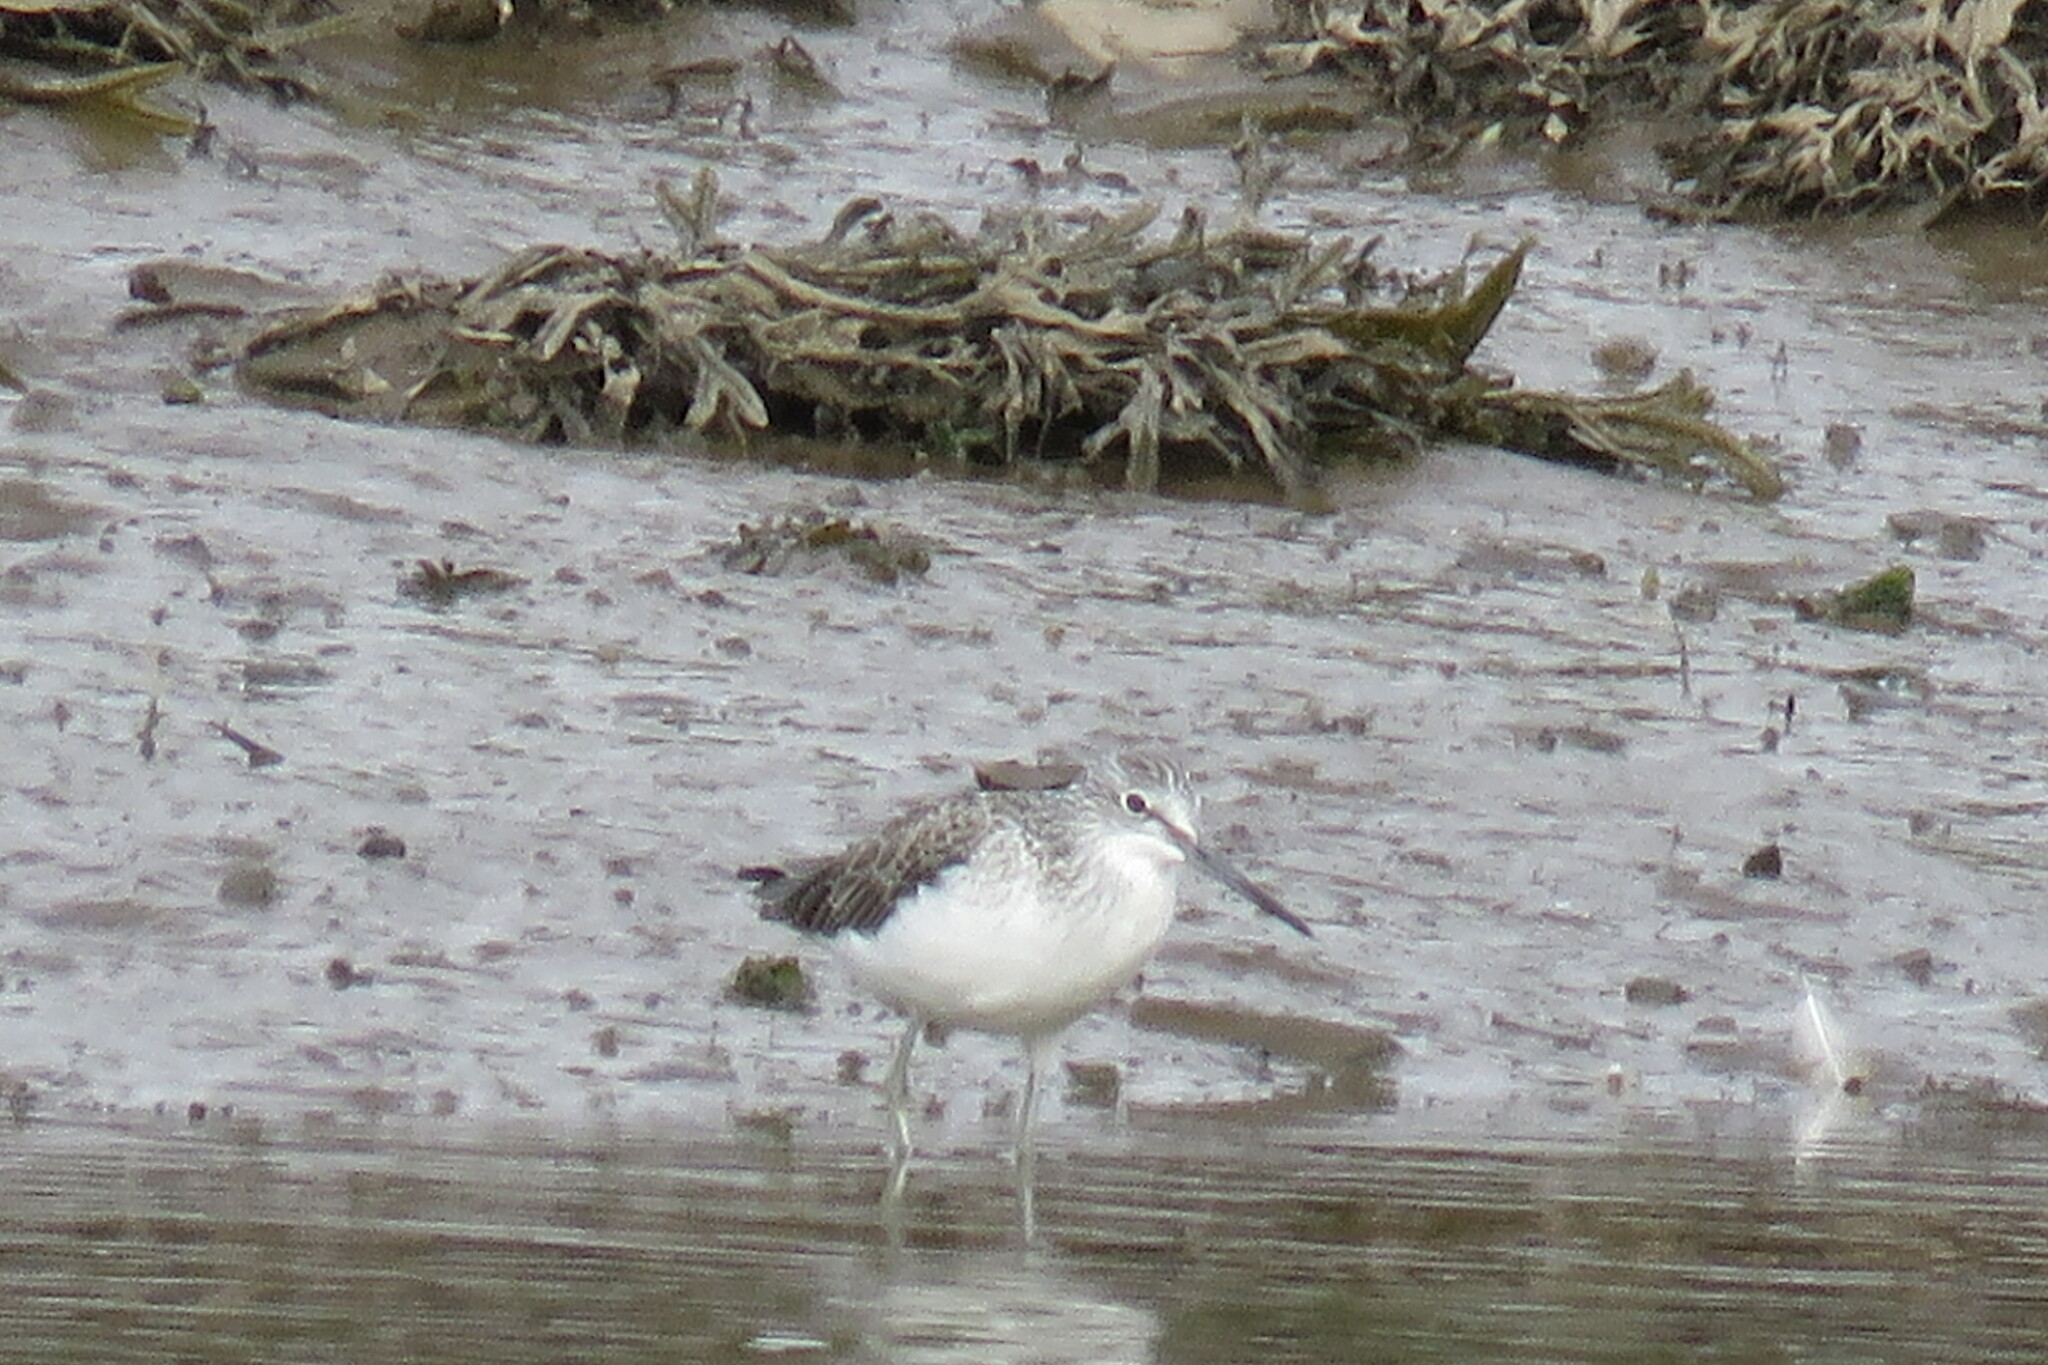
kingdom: Animalia
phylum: Chordata
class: Aves
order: Charadriiformes
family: Scolopacidae
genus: Tringa
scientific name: Tringa nebularia
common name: Common greenshank
